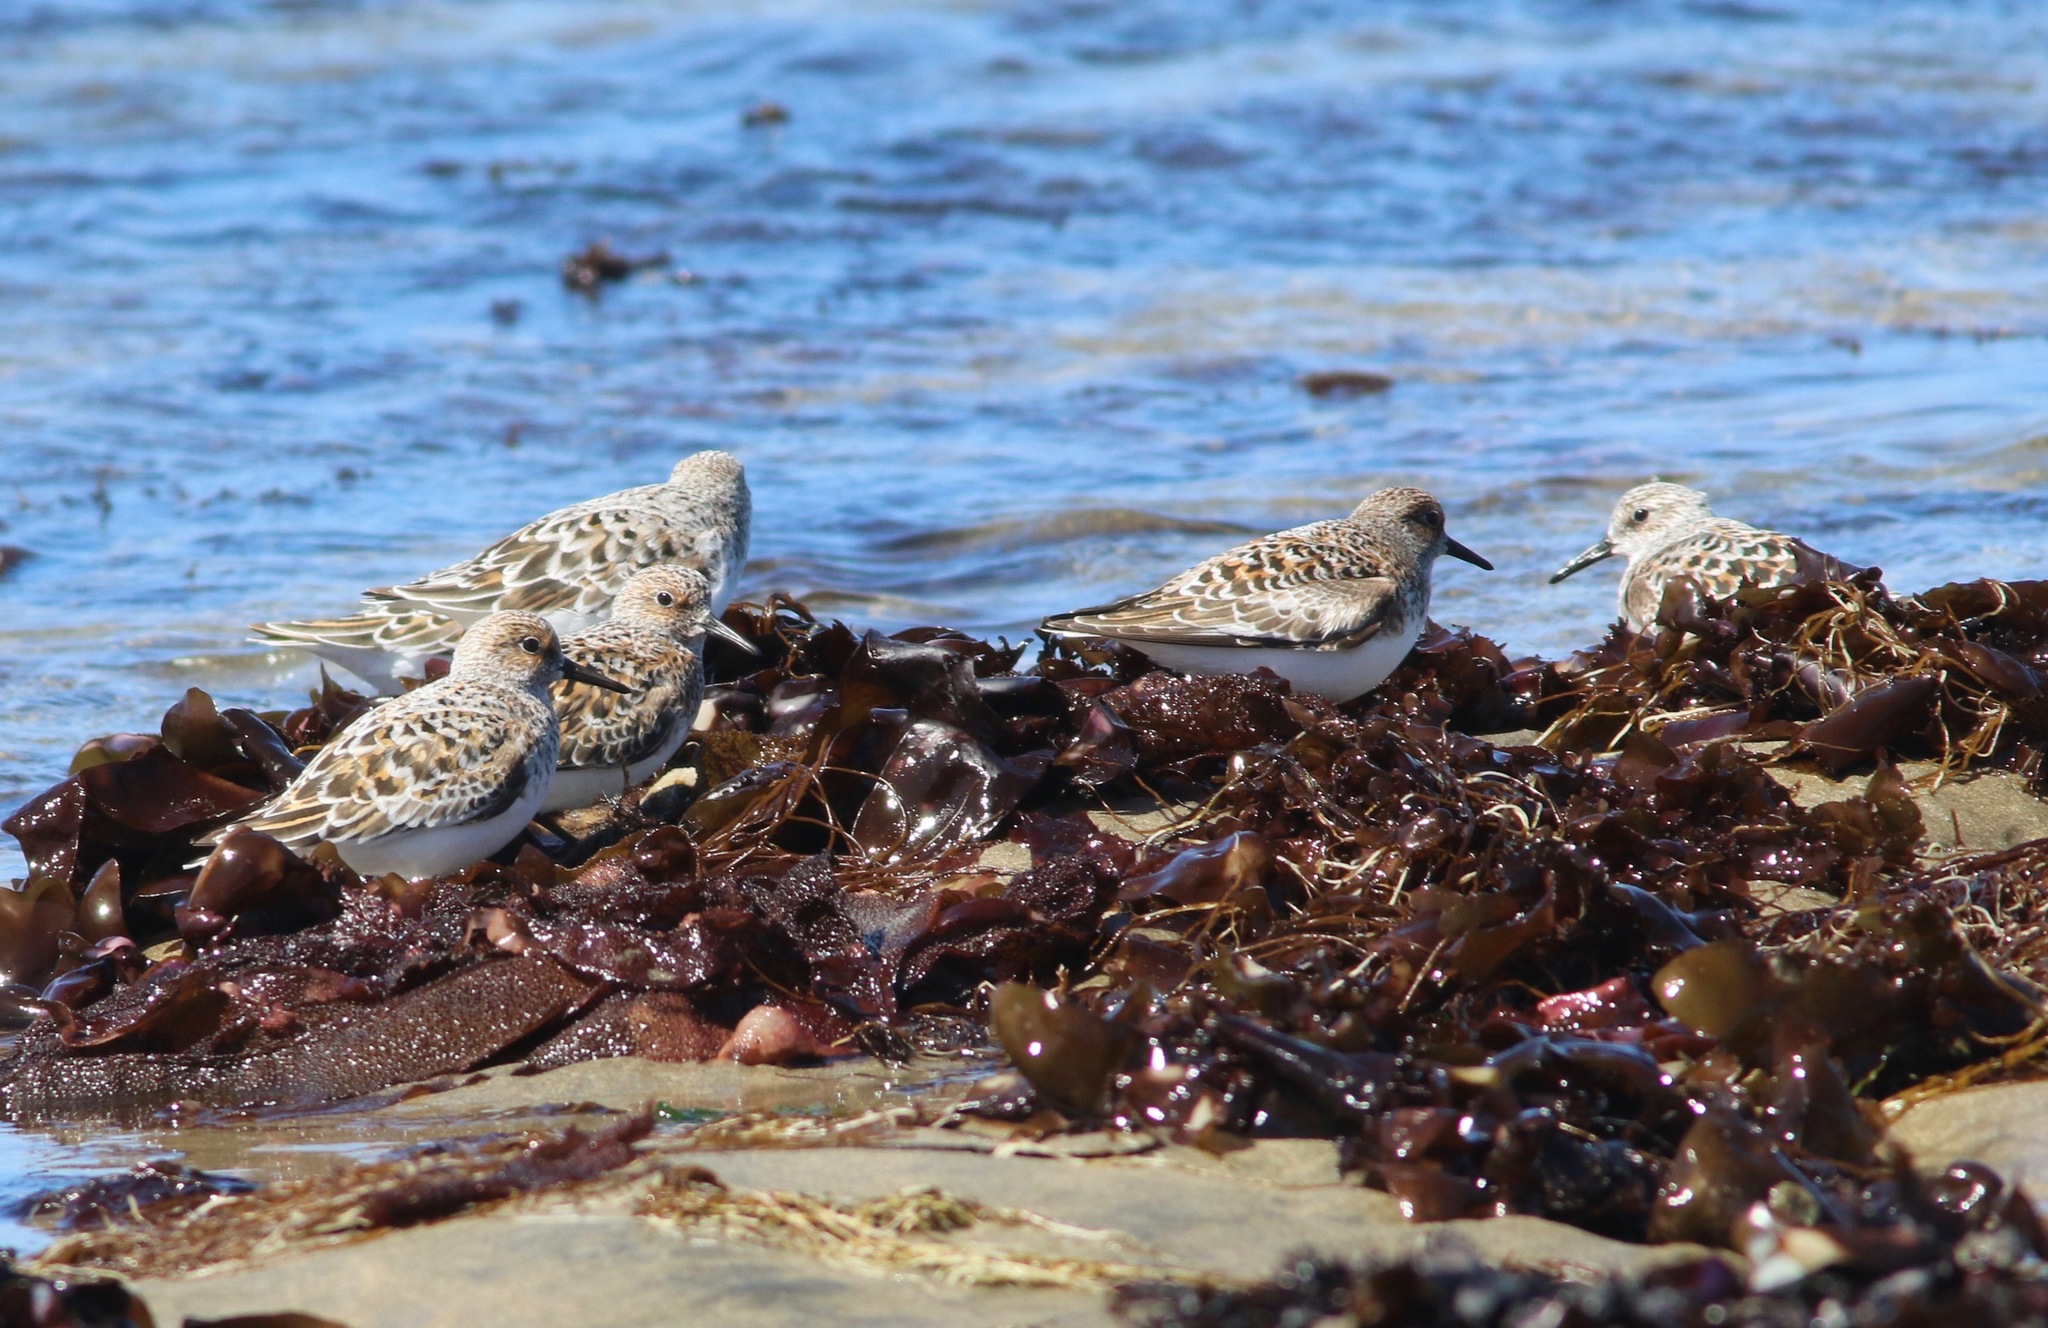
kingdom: Animalia
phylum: Chordata
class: Aves
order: Charadriiformes
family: Scolopacidae
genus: Calidris
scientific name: Calidris alba
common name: Sanderling
